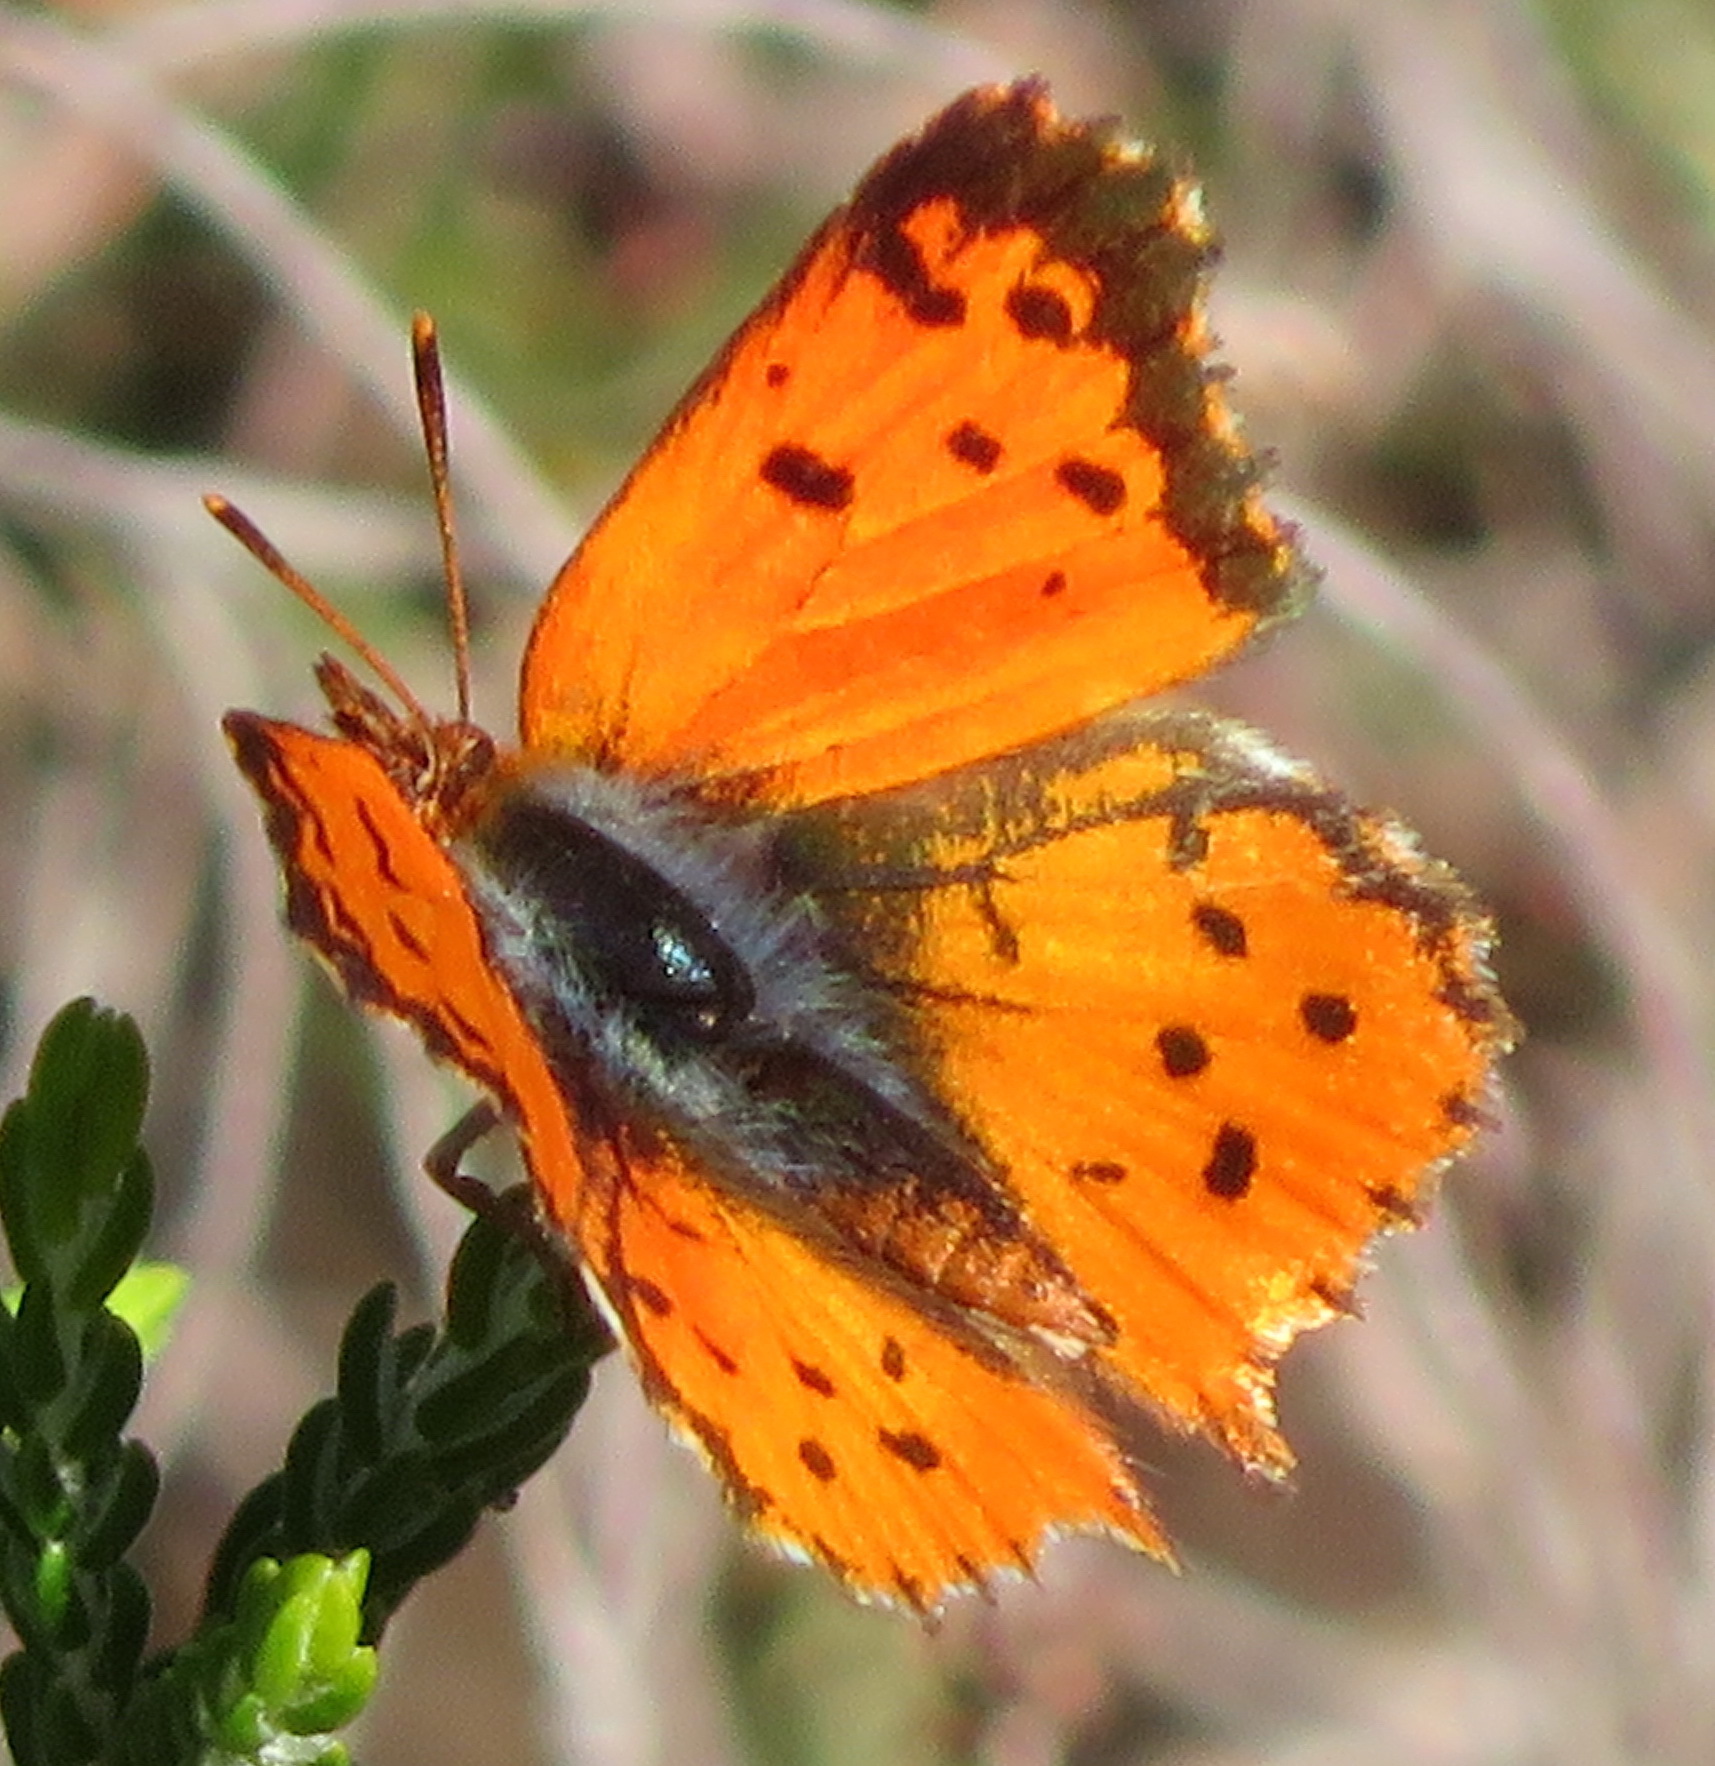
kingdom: Animalia
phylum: Arthropoda
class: Insecta
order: Lepidoptera
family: Lycaenidae
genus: Chrysoritis
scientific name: Chrysoritis
